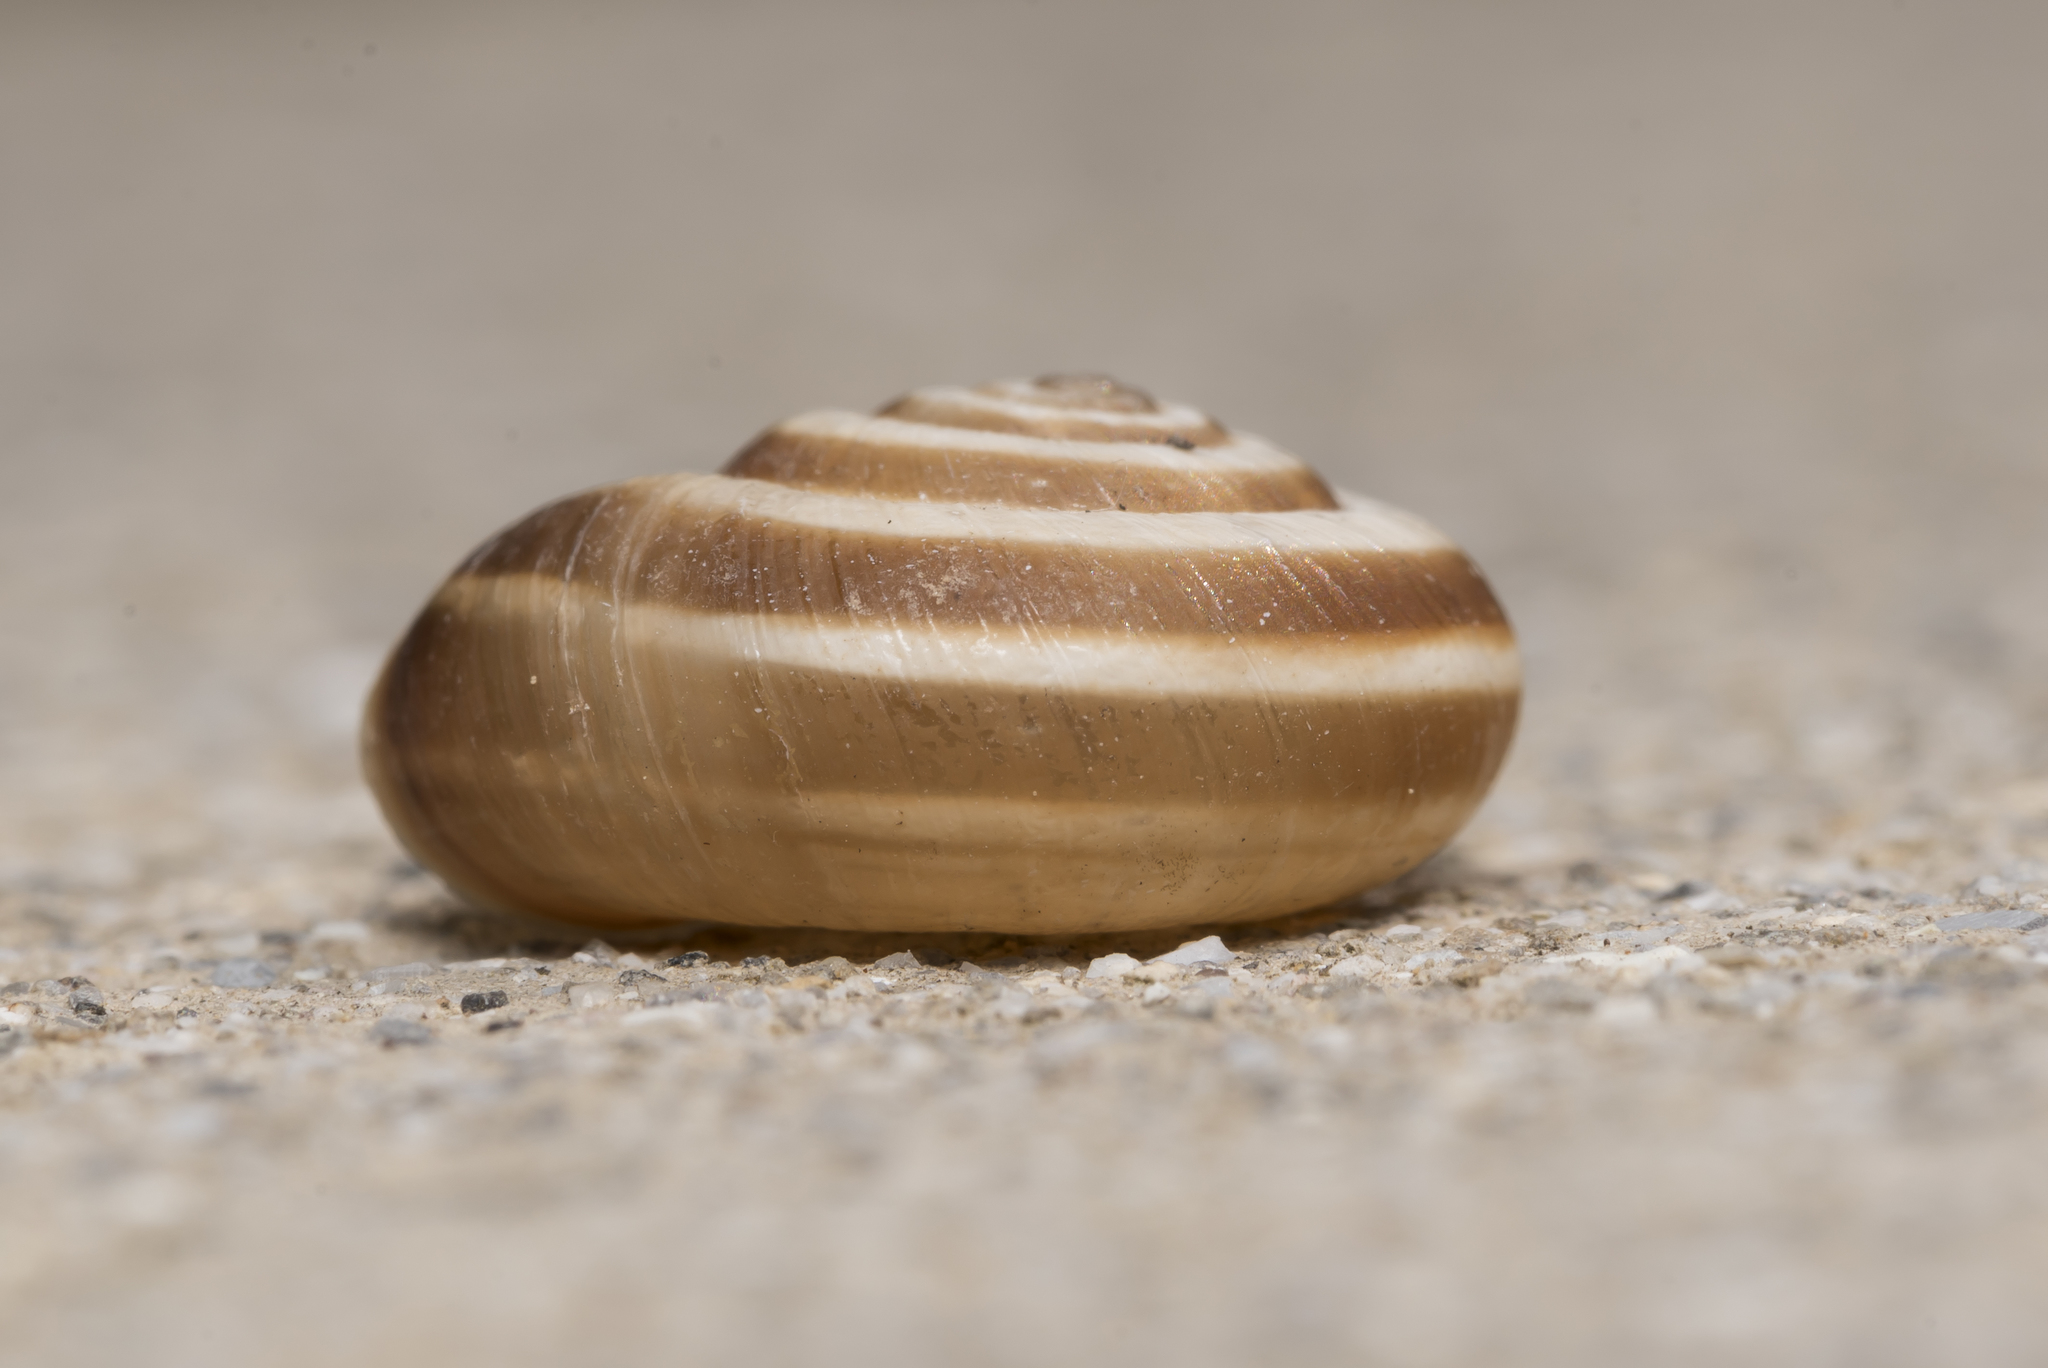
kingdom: Animalia
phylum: Mollusca
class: Gastropoda
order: Stylommatophora
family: Geomitridae
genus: Helicella
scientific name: Helicella itala
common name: Heath snail
